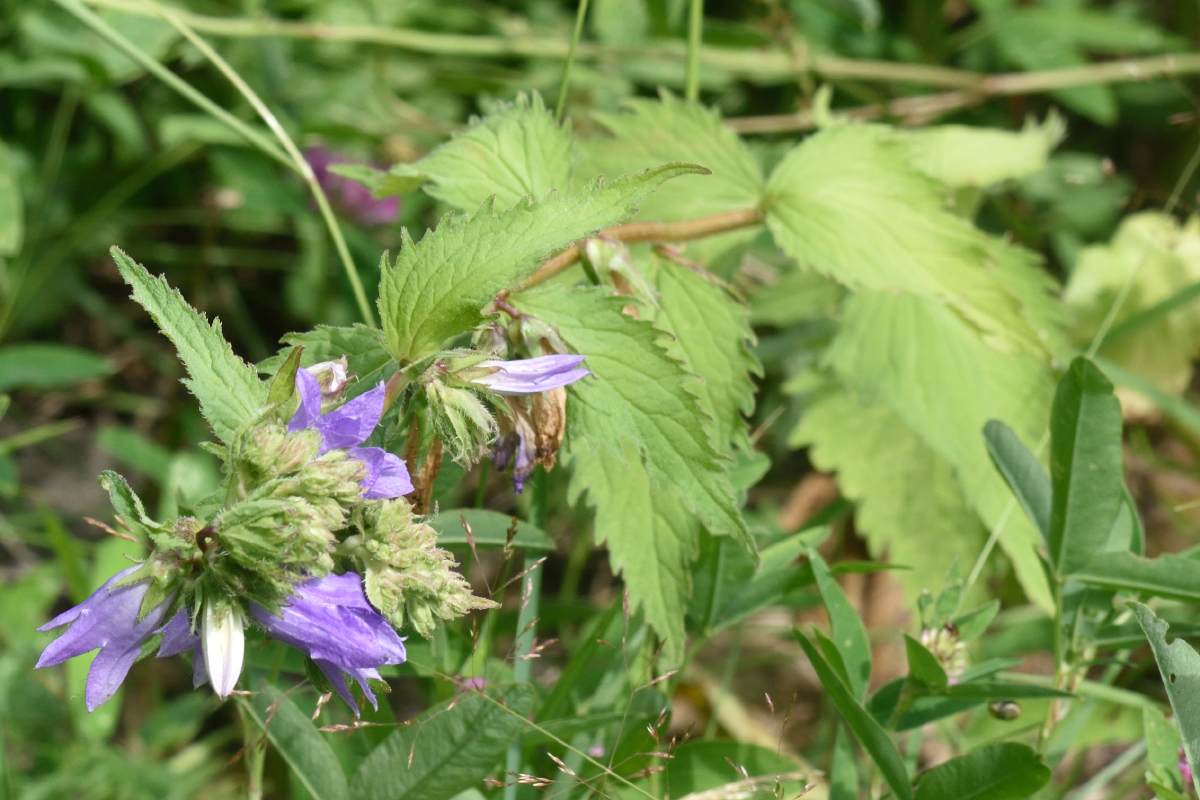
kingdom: Plantae
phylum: Tracheophyta
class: Magnoliopsida
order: Asterales
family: Campanulaceae
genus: Campanula
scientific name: Campanula trachelium
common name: Nettle-leaved bellflower
